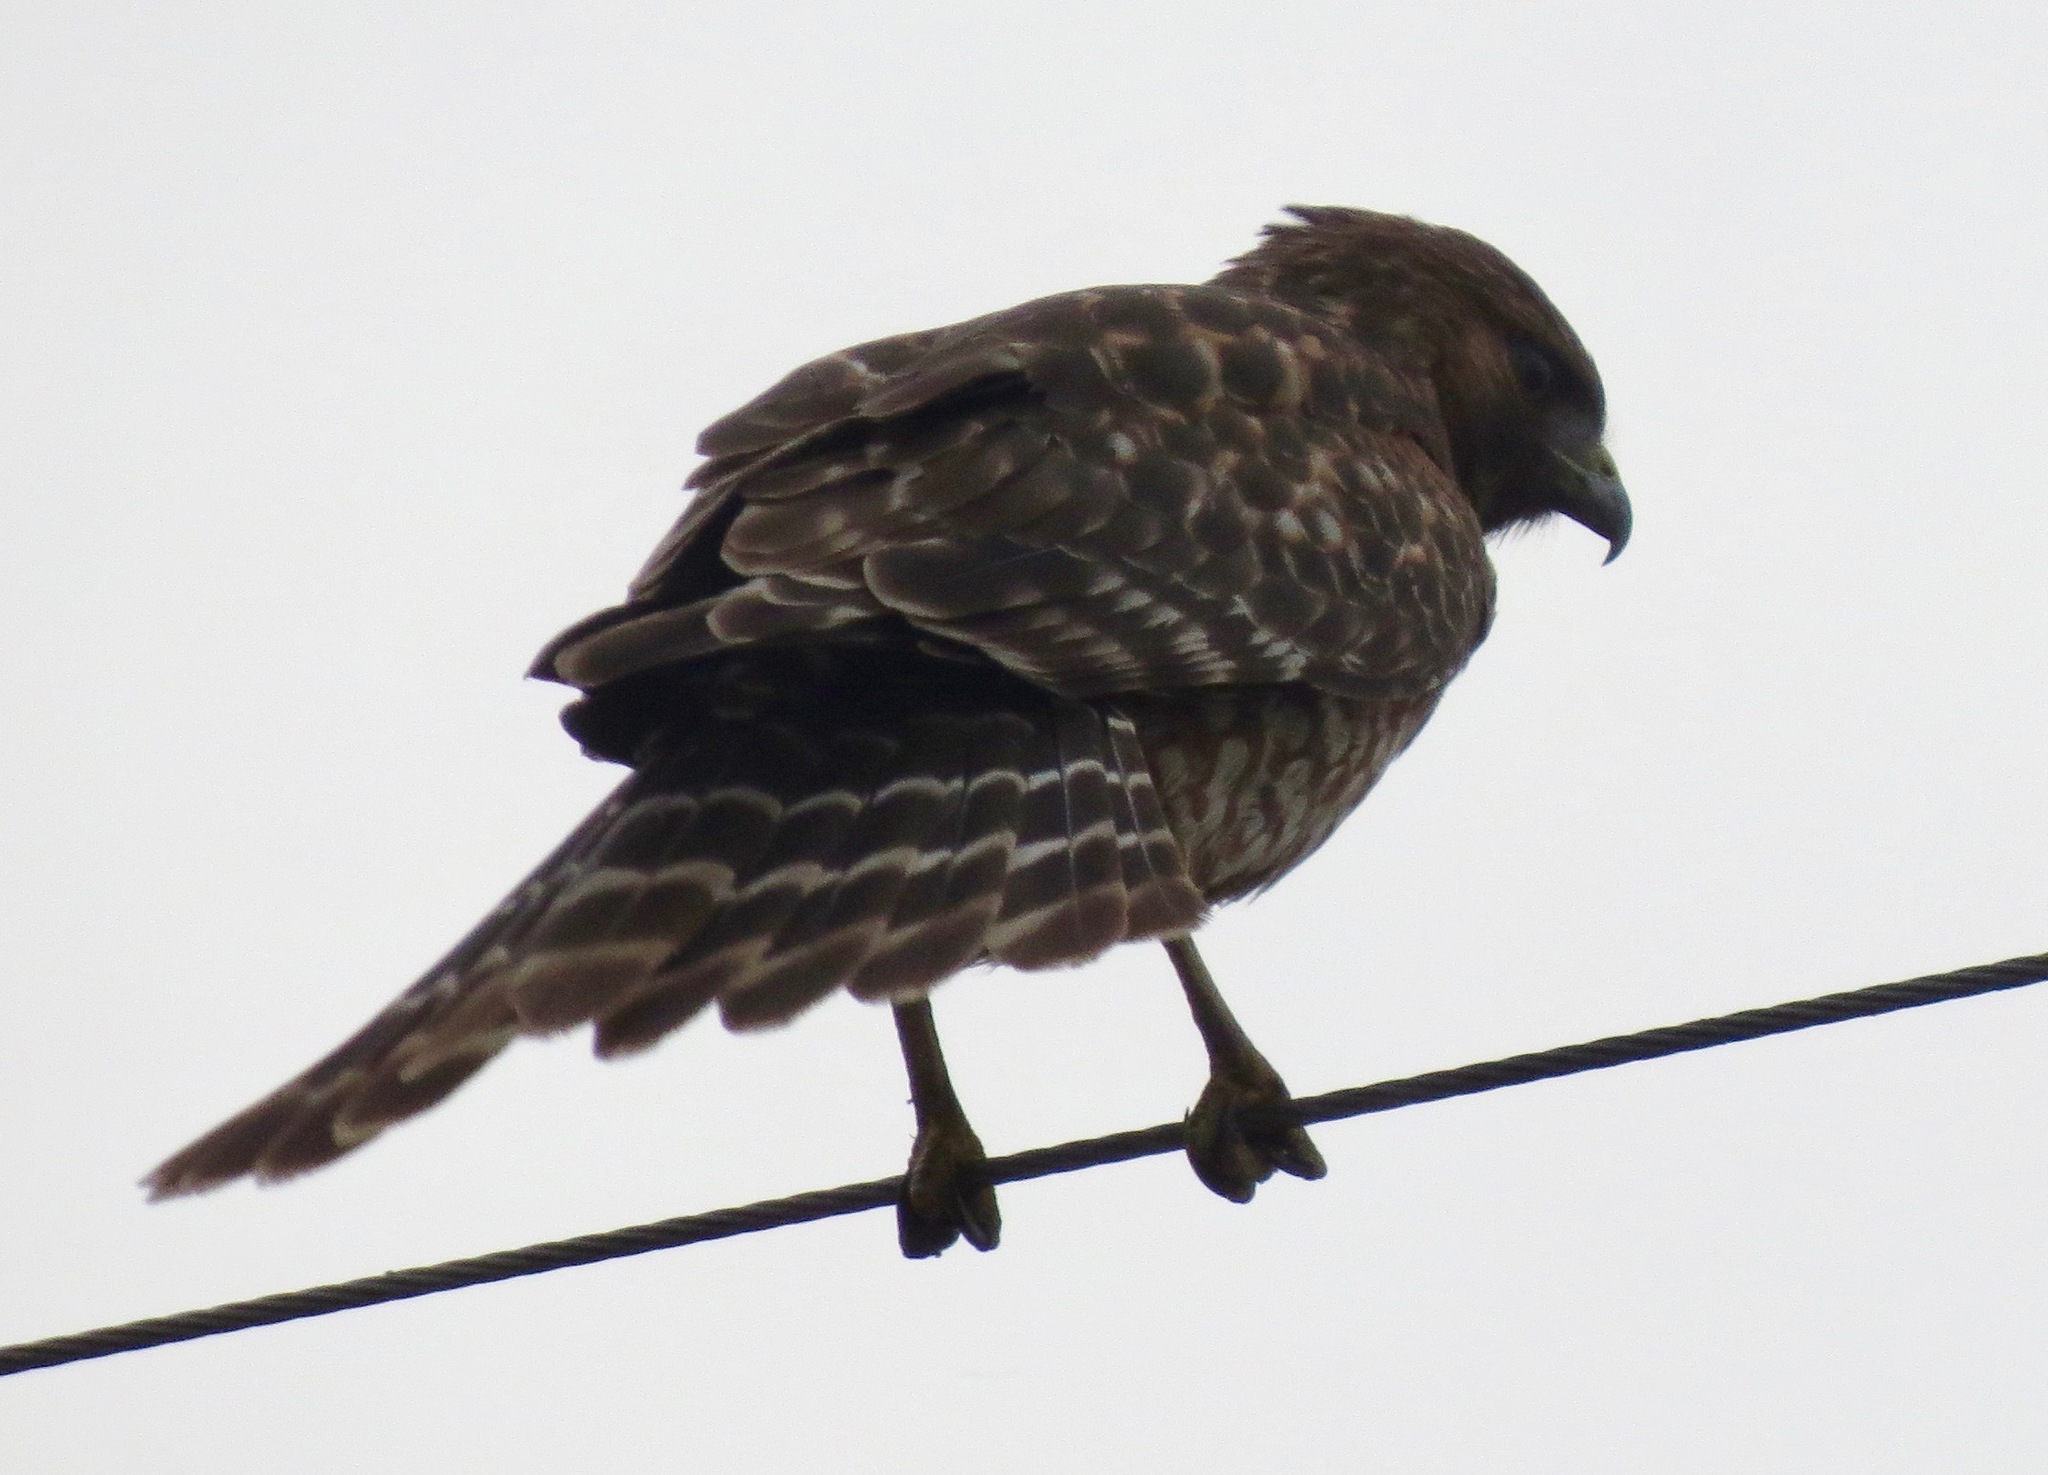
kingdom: Animalia
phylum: Chordata
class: Aves
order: Accipitriformes
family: Accipitridae
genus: Buteo
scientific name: Buteo lineatus
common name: Red-shouldered hawk
